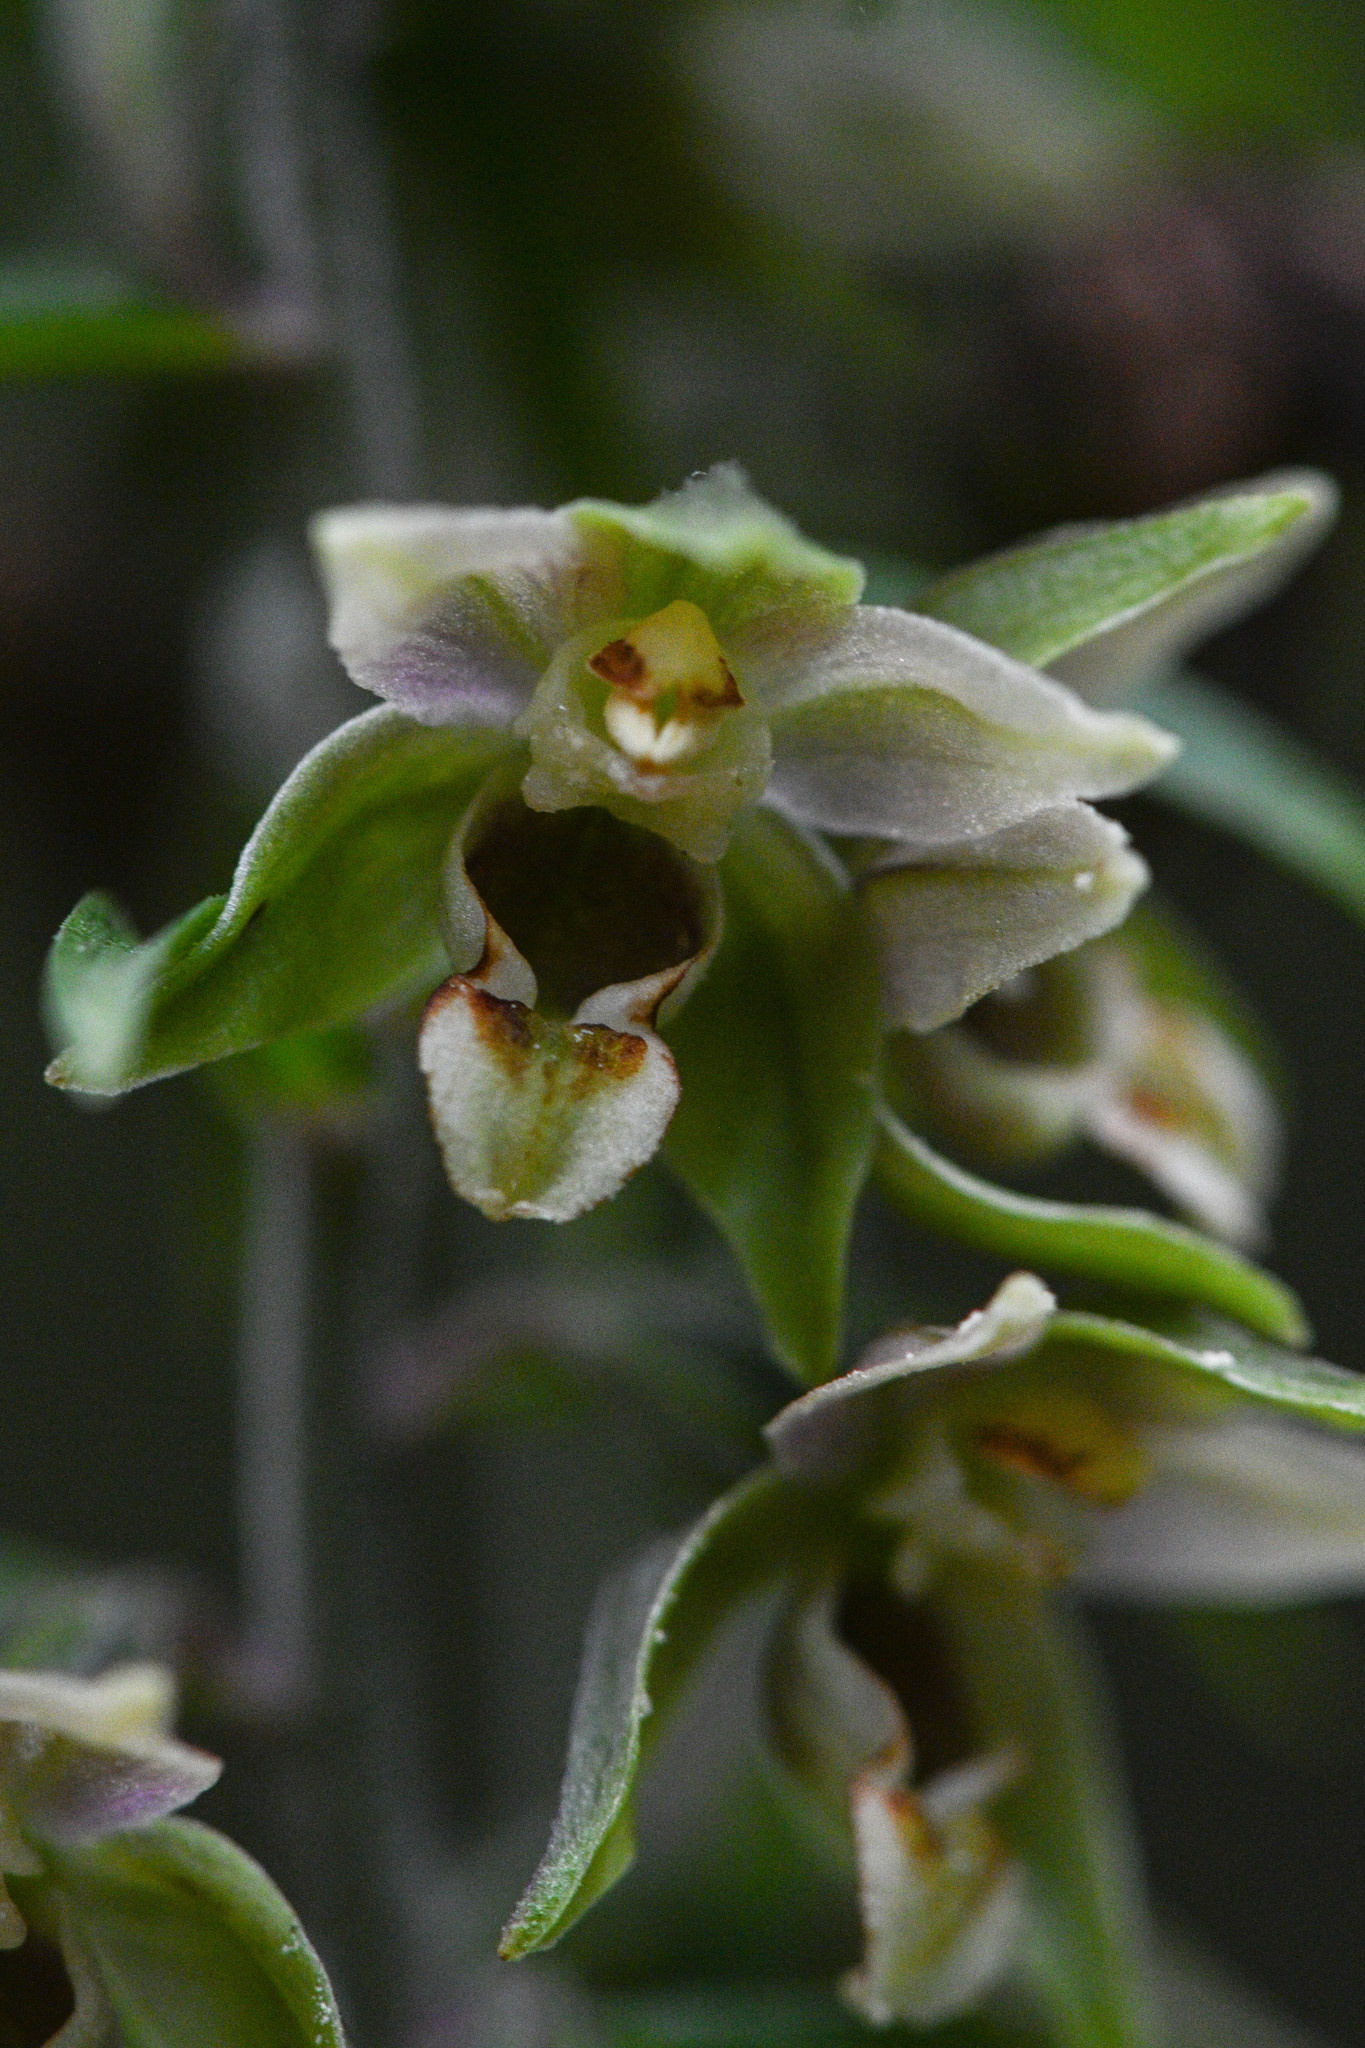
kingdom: Plantae
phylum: Tracheophyta
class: Liliopsida
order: Asparagales
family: Orchidaceae
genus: Epipactis
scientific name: Epipactis helleborine
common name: Broad-leaved helleborine
